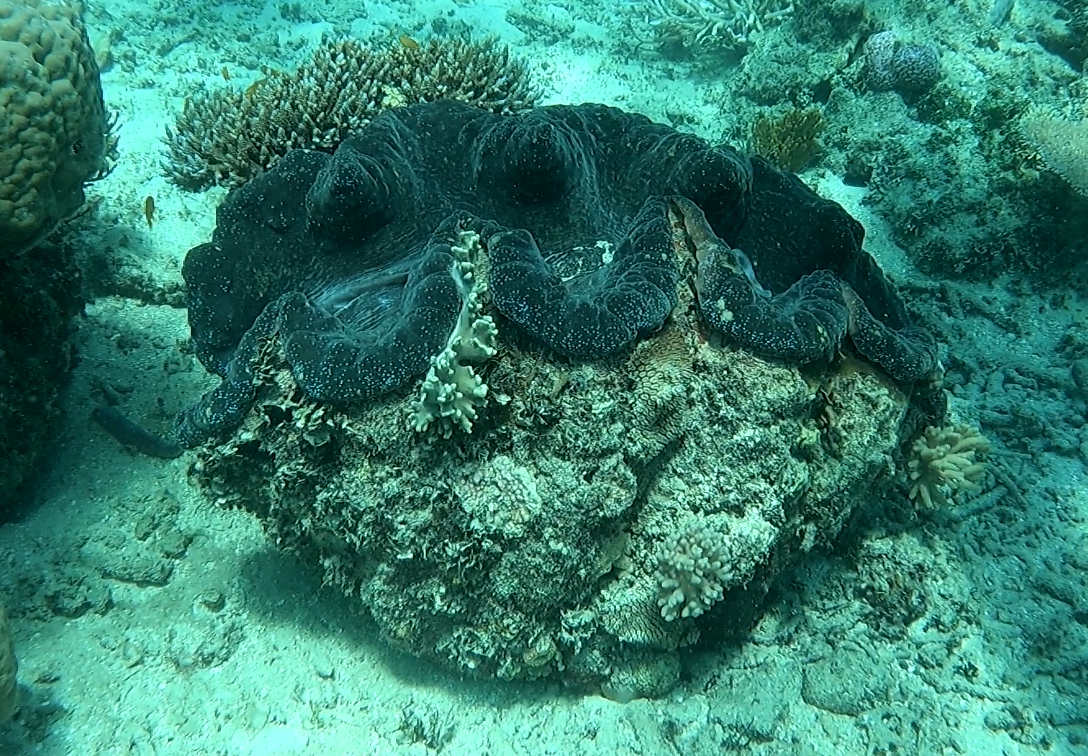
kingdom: Animalia
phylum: Mollusca
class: Bivalvia
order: Cardiida
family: Cardiidae
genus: Tridacna
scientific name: Tridacna gigas
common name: Giant clam
